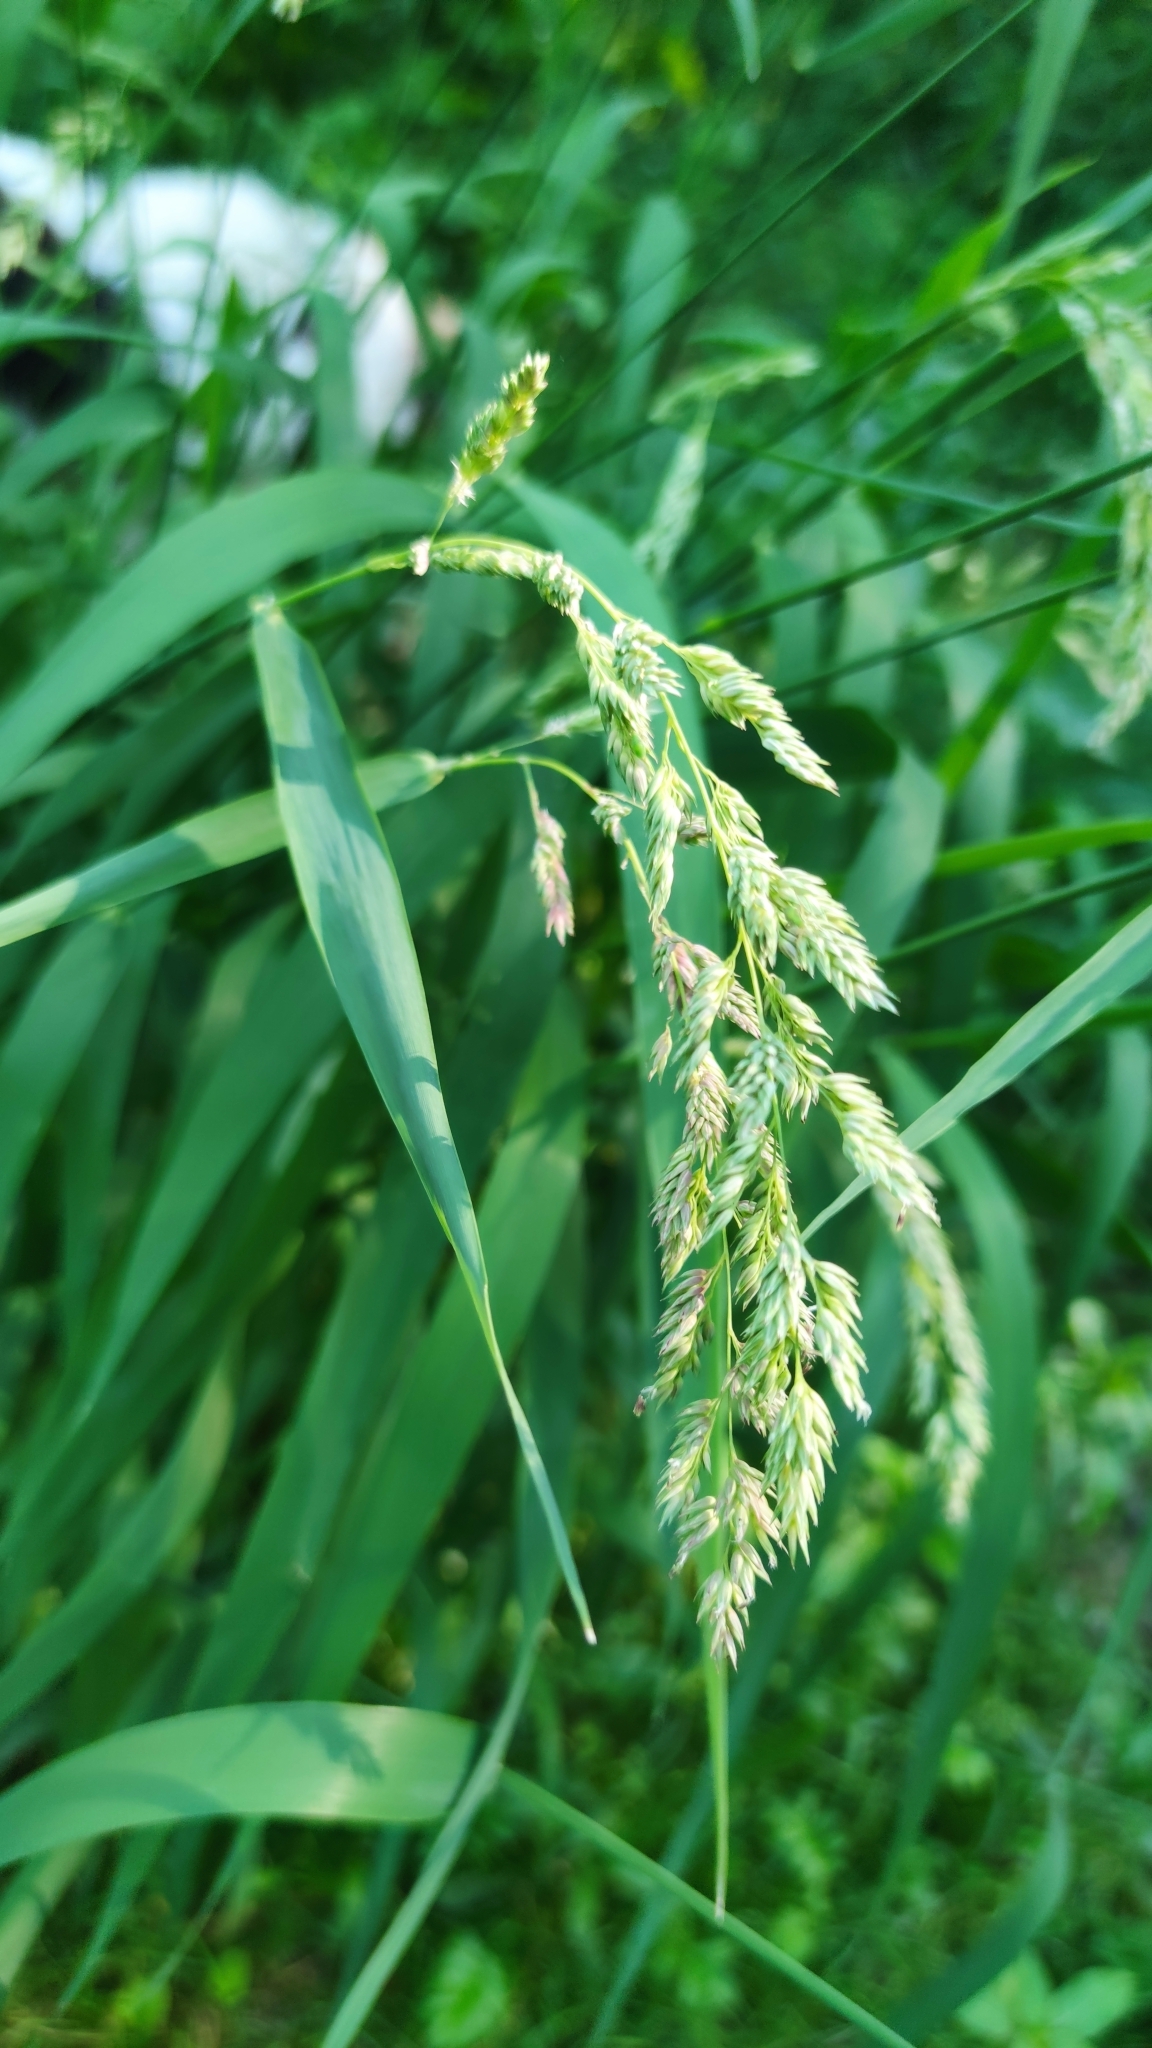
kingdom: Plantae
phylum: Tracheophyta
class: Liliopsida
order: Poales
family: Poaceae
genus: Phalaris
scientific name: Phalaris arundinacea
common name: Reed canary-grass
